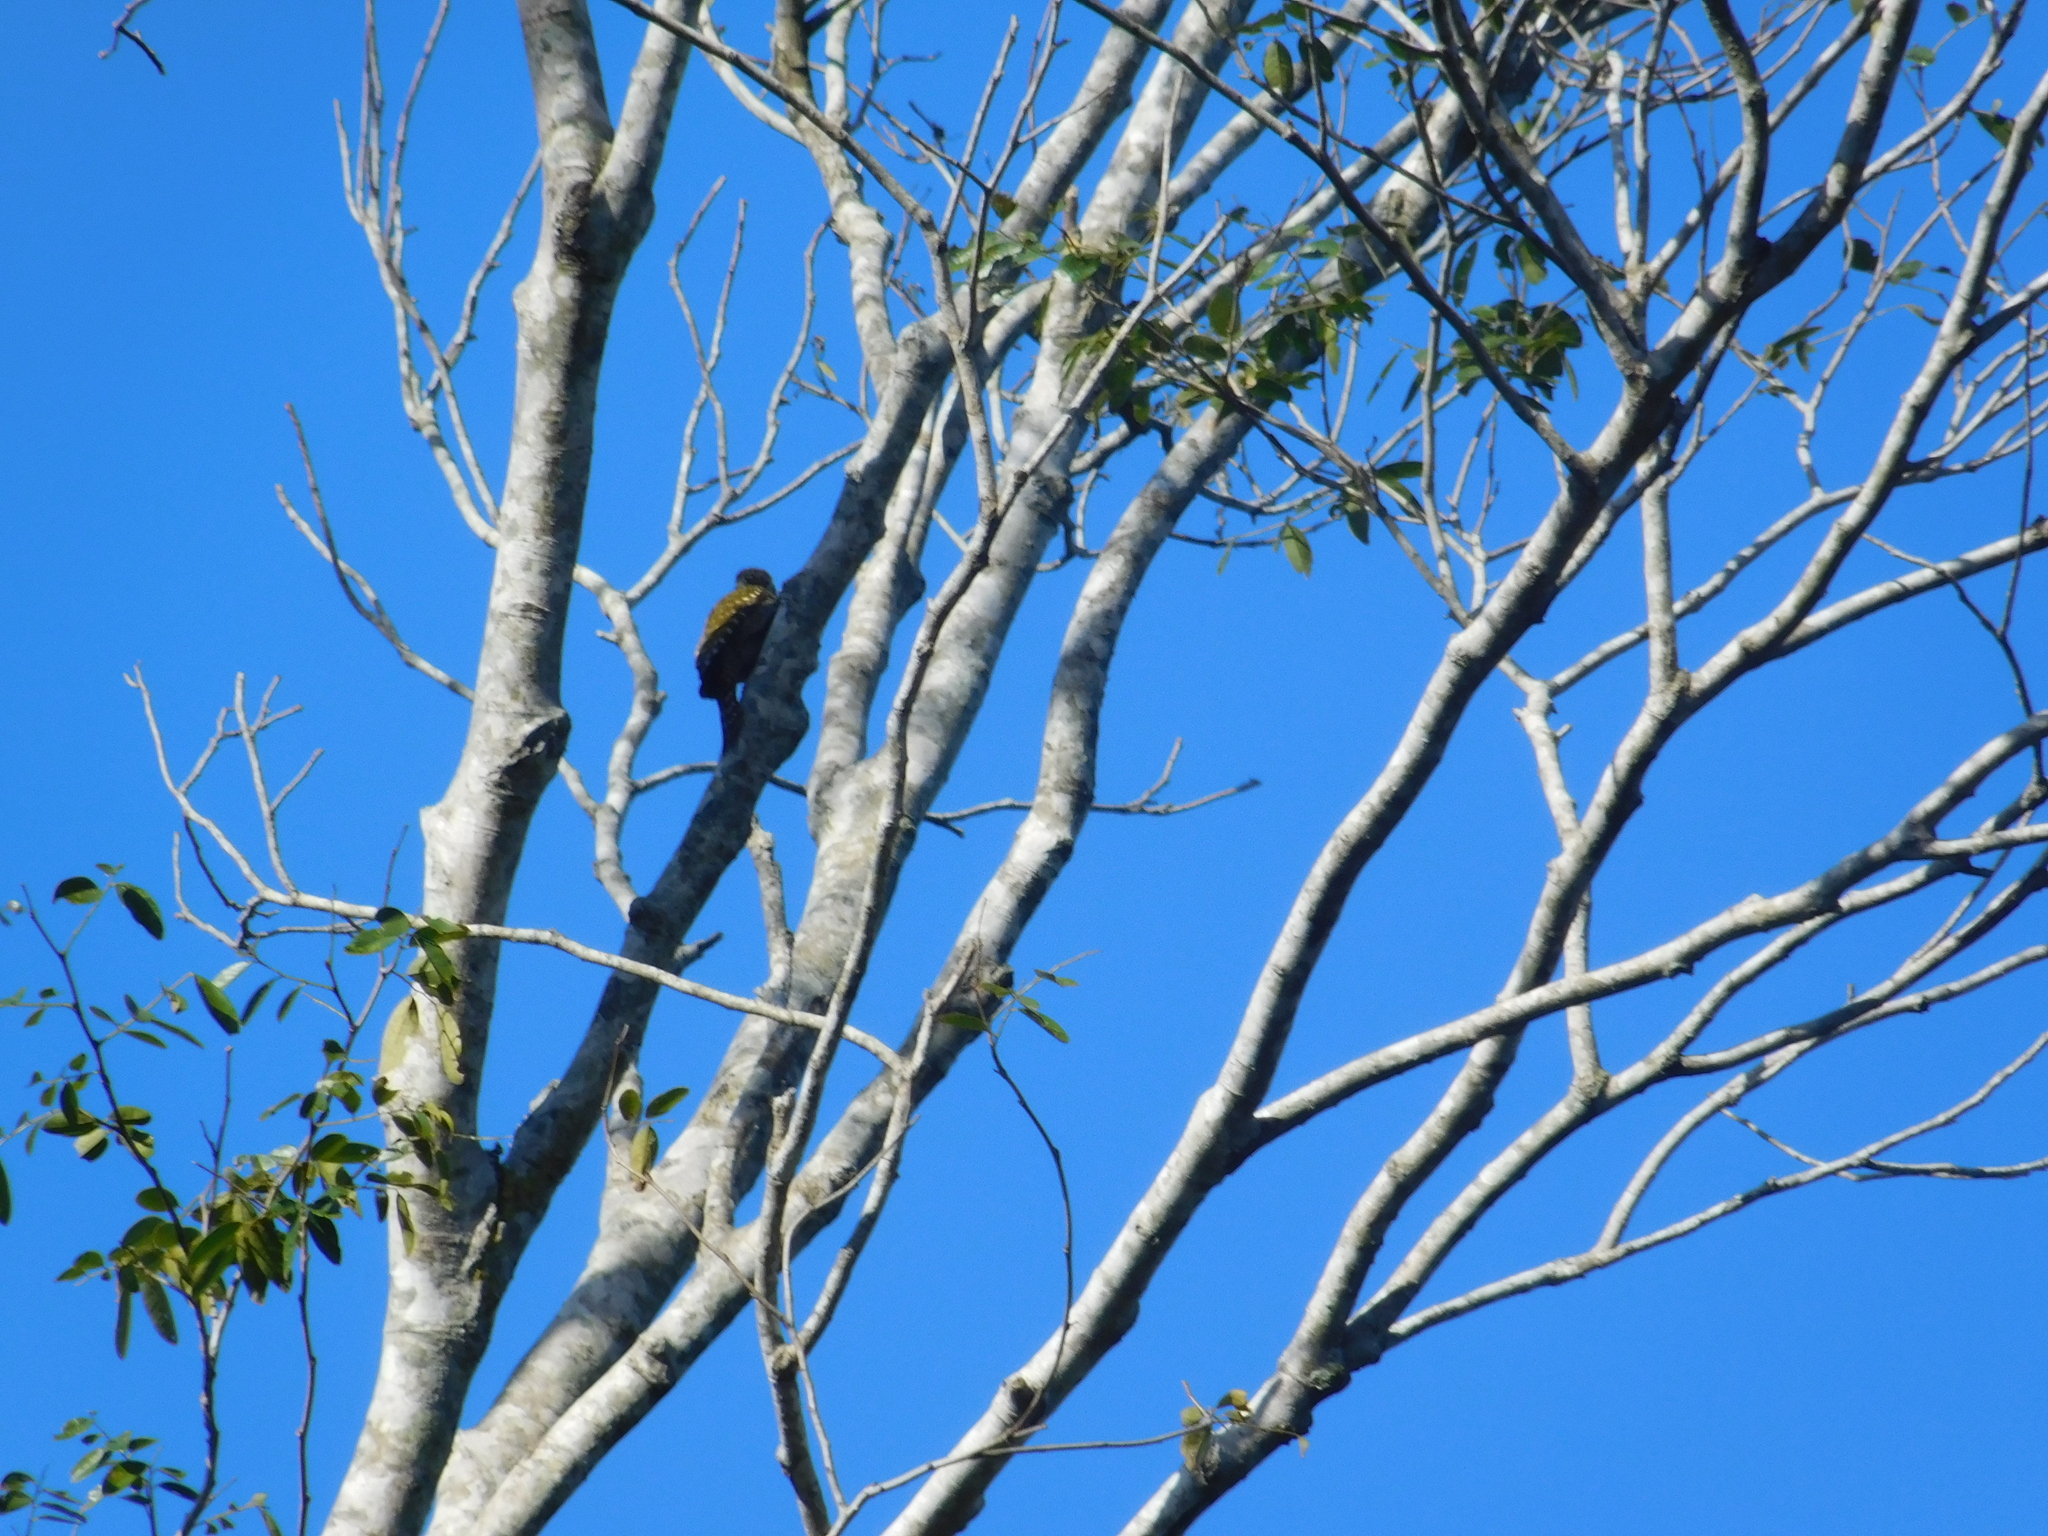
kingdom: Animalia
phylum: Chordata
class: Aves
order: Piciformes
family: Picidae
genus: Veniliornis
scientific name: Veniliornis spilogaster
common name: White-spotted woodpecker
